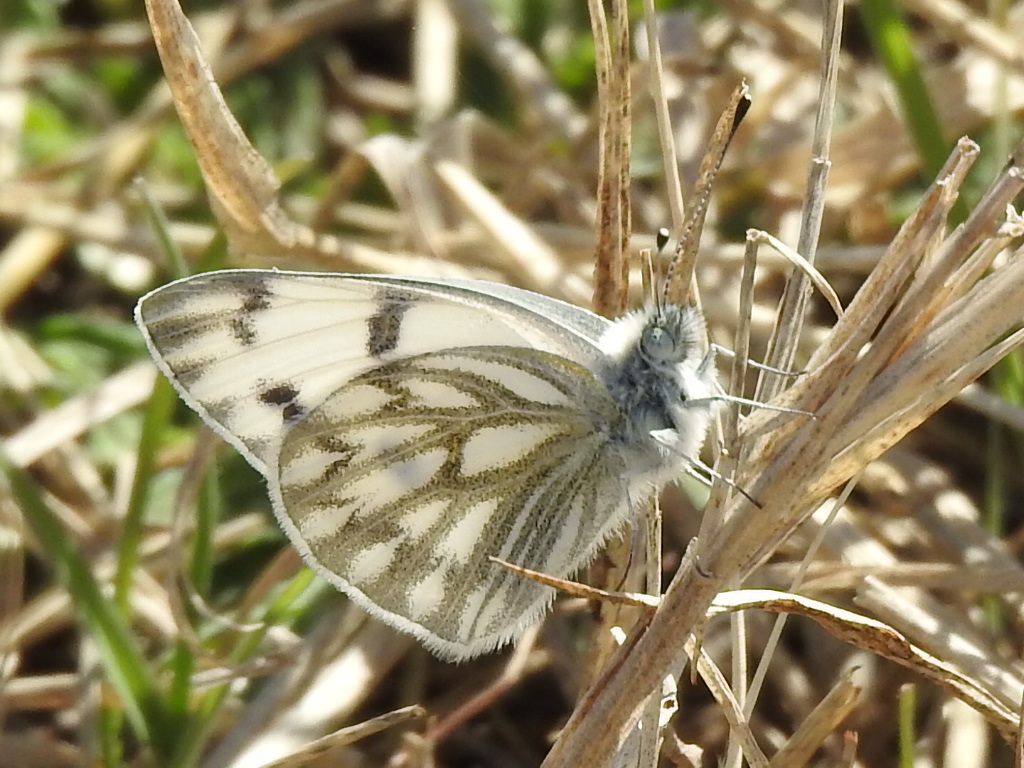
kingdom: Animalia
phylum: Arthropoda
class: Insecta
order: Lepidoptera
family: Pieridae
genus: Pontia
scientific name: Pontia protodice
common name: Checkered white
